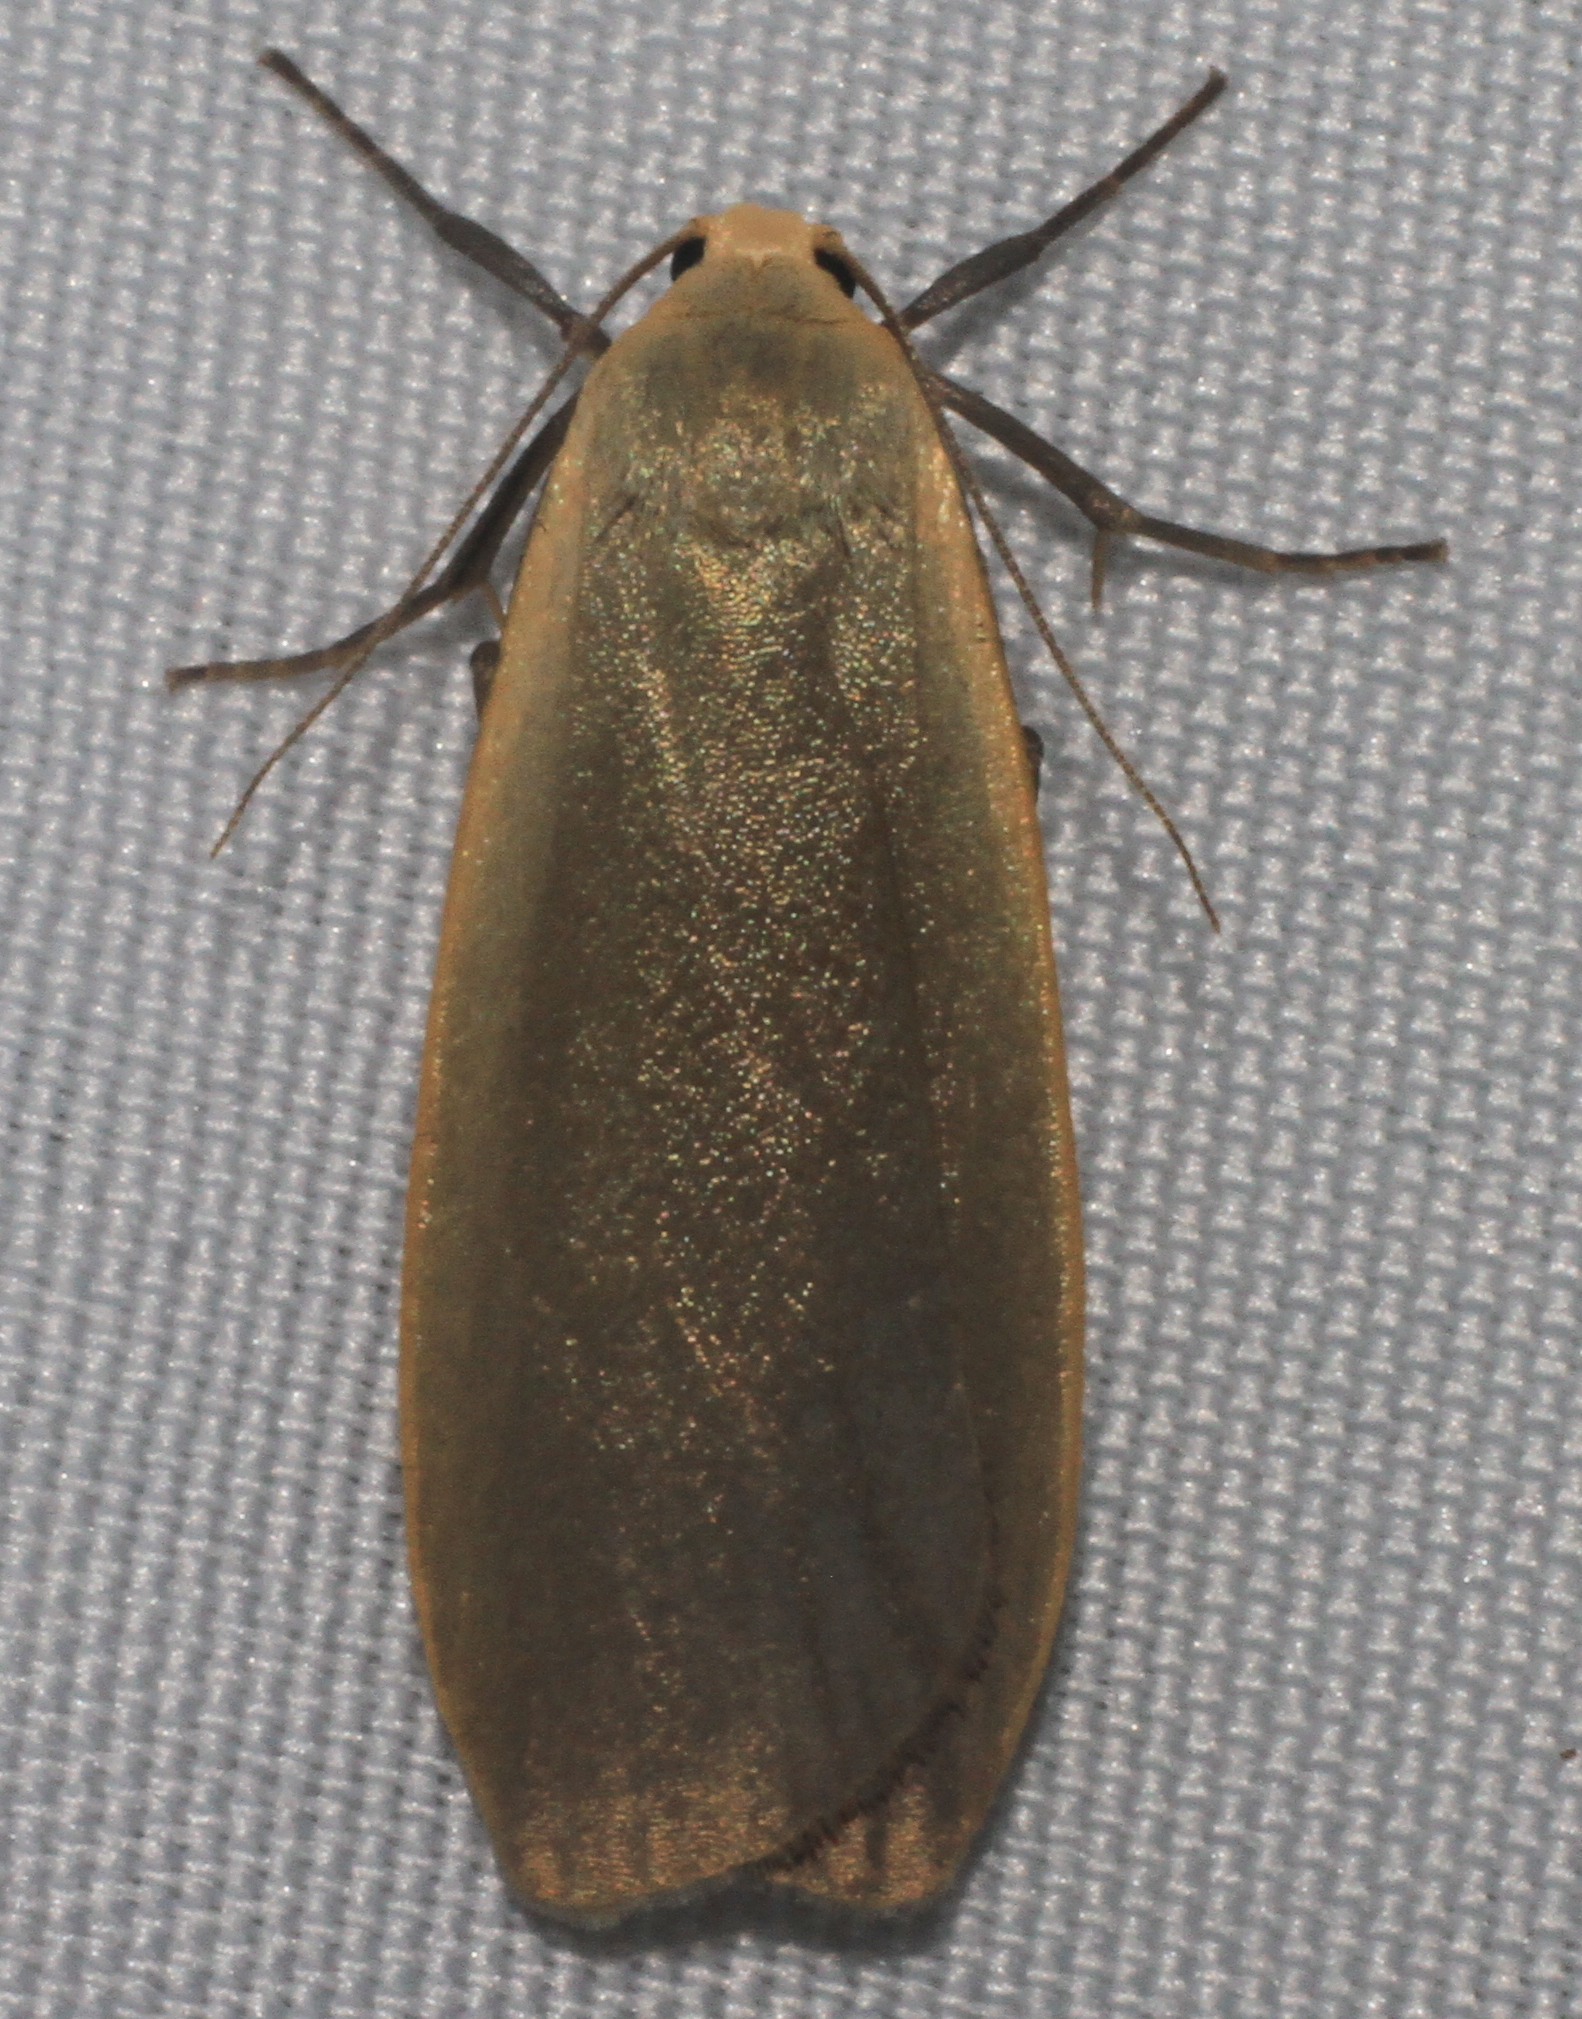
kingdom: Animalia
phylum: Arthropoda
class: Insecta
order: Lepidoptera
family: Erebidae
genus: Collita
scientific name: Collita griseola
